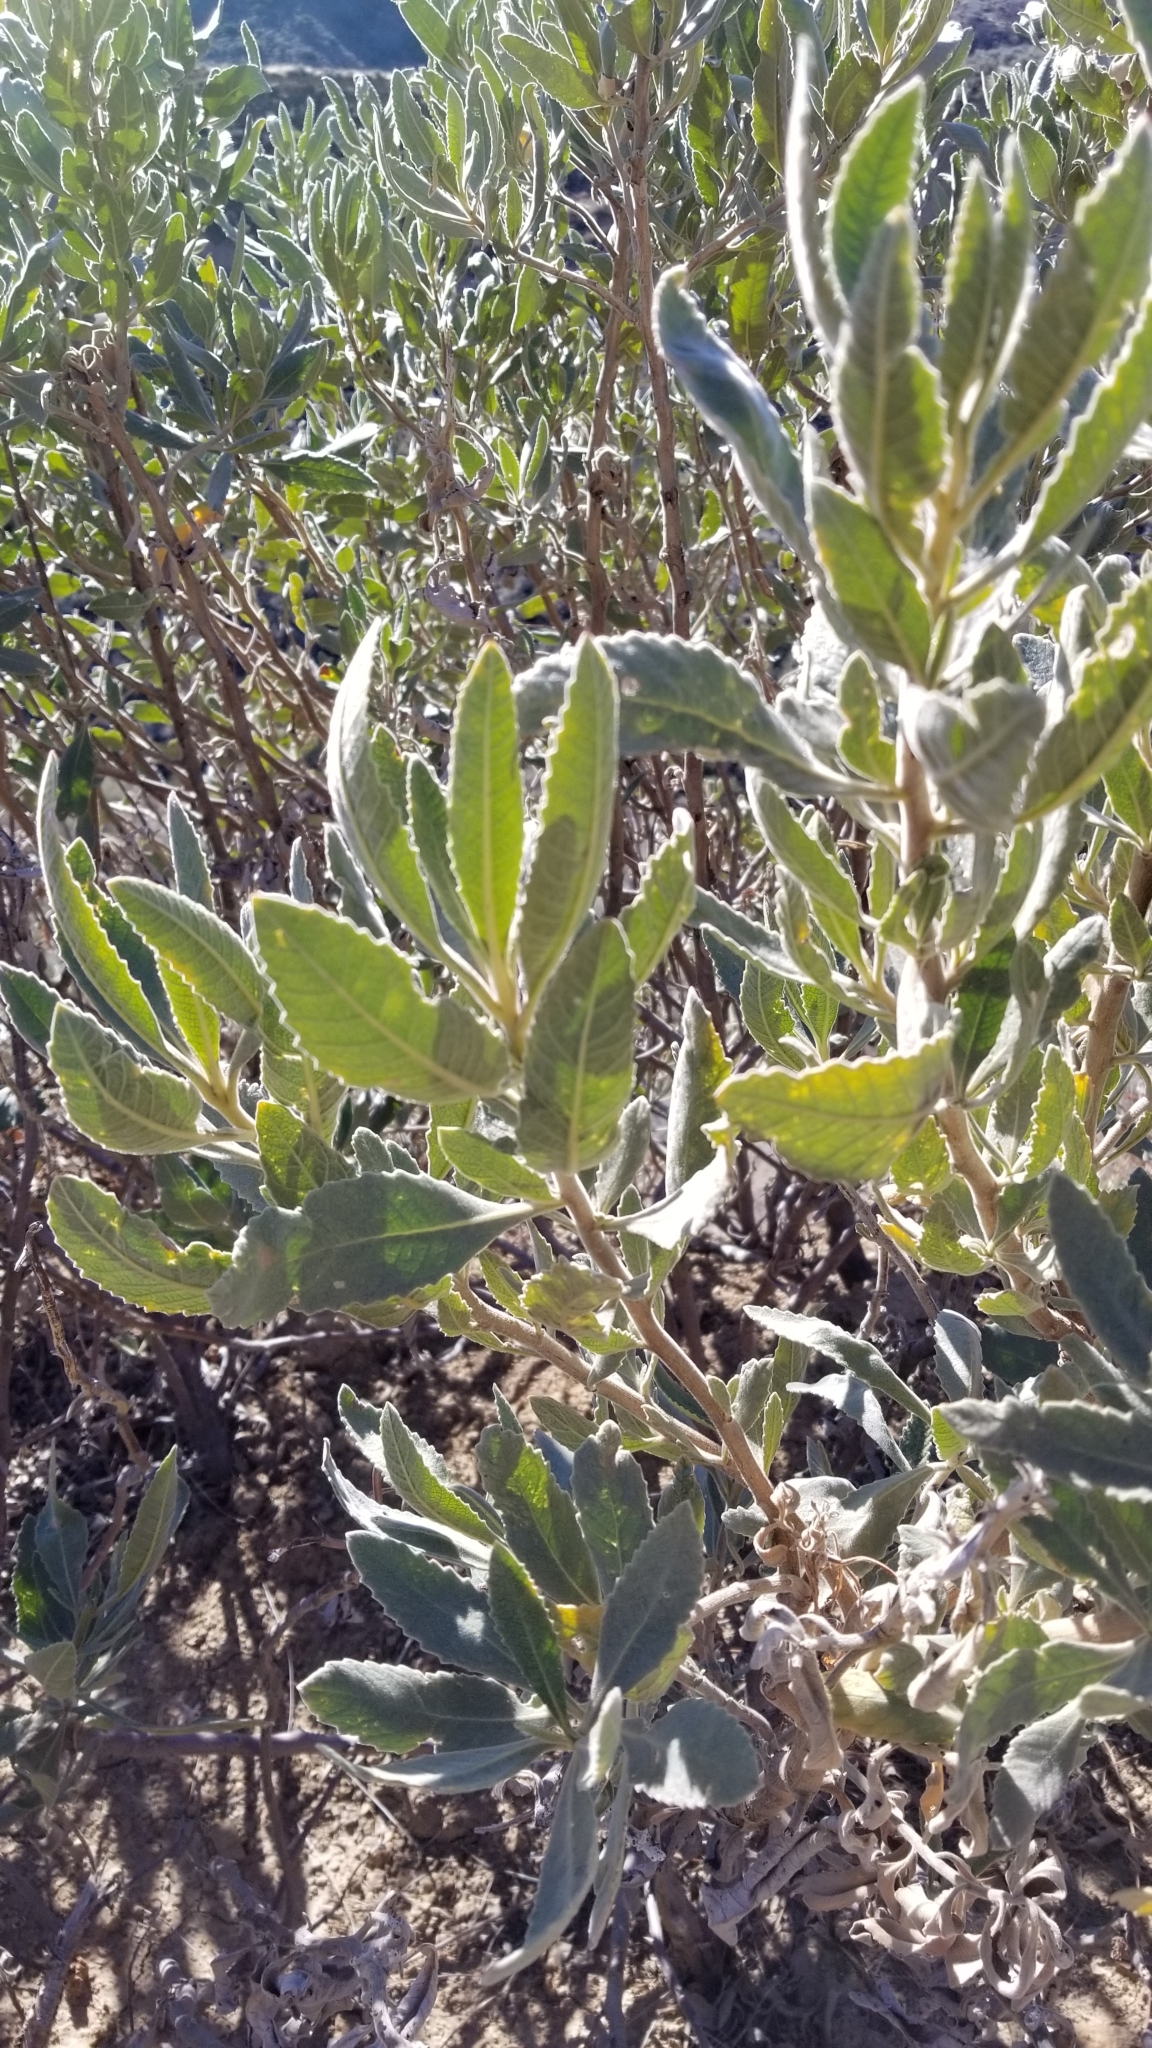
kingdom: Plantae
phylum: Tracheophyta
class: Magnoliopsida
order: Boraginales
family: Namaceae
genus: Eriodictyon
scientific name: Eriodictyon crassifolium
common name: Thick-leaf yerba-santa
